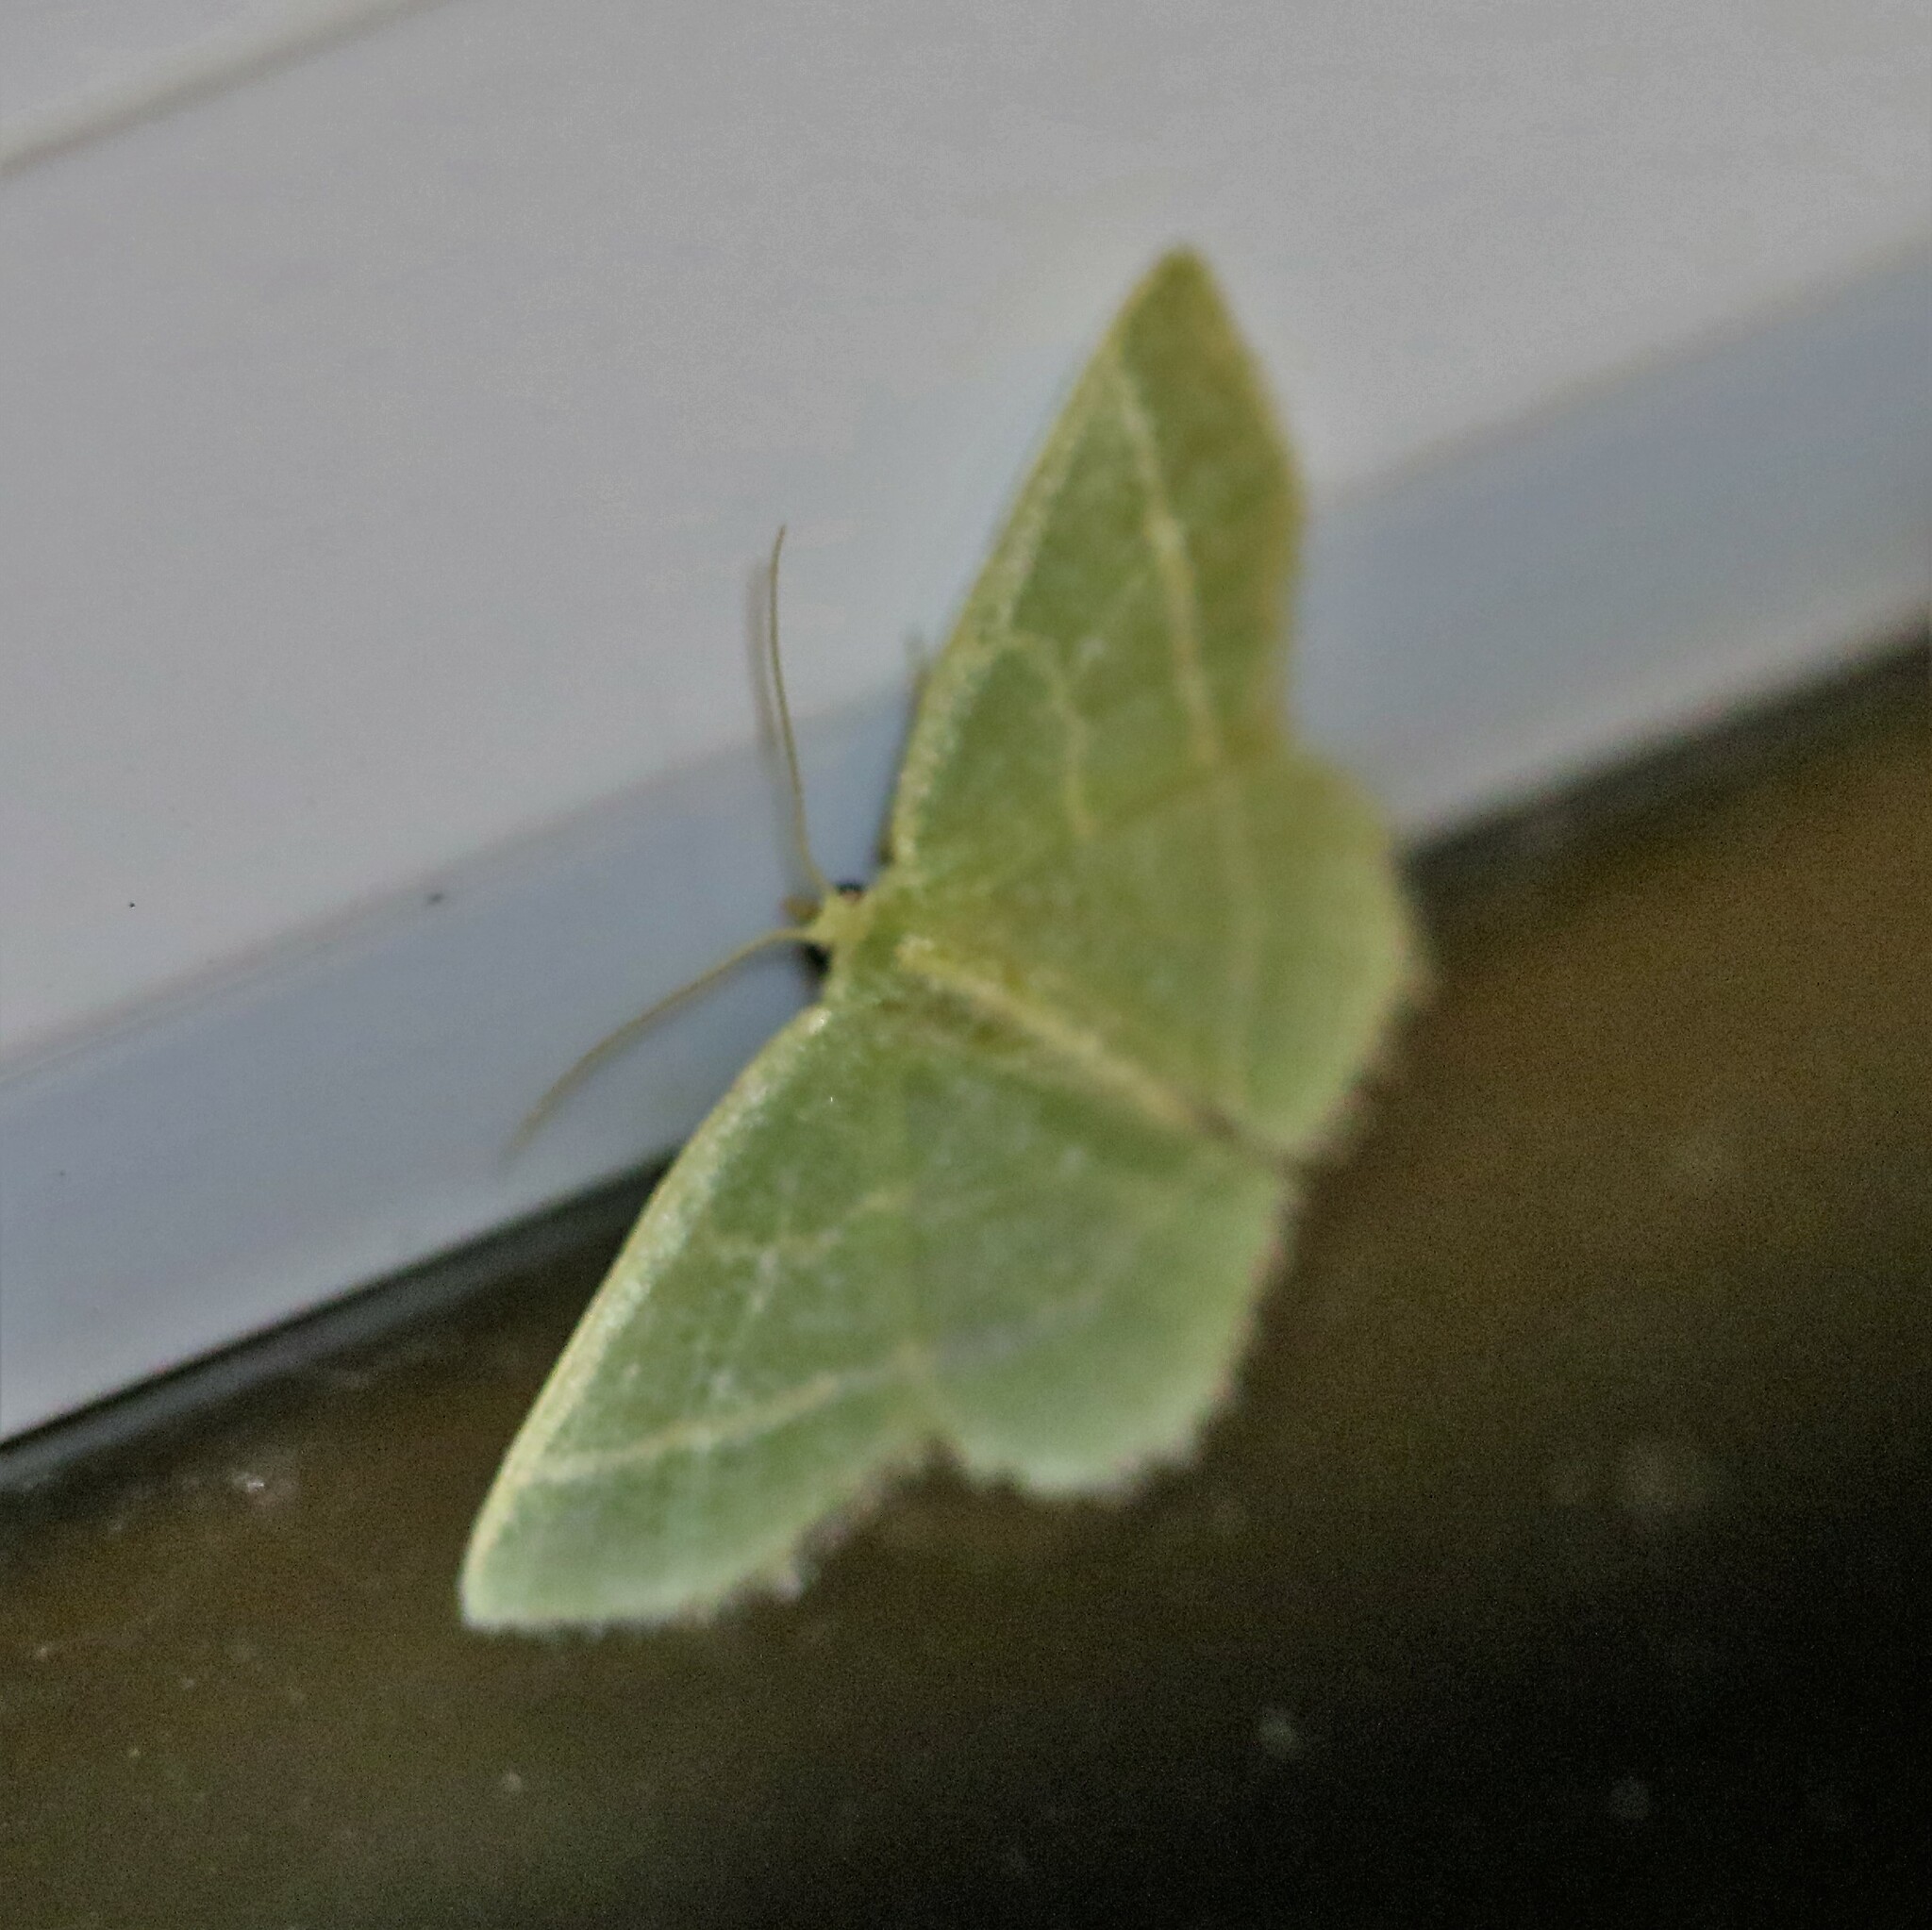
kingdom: Animalia
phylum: Arthropoda
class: Insecta
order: Lepidoptera
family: Geometridae
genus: Chlorochlamys
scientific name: Chlorochlamys chloroleucaria
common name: Blackberry looper
